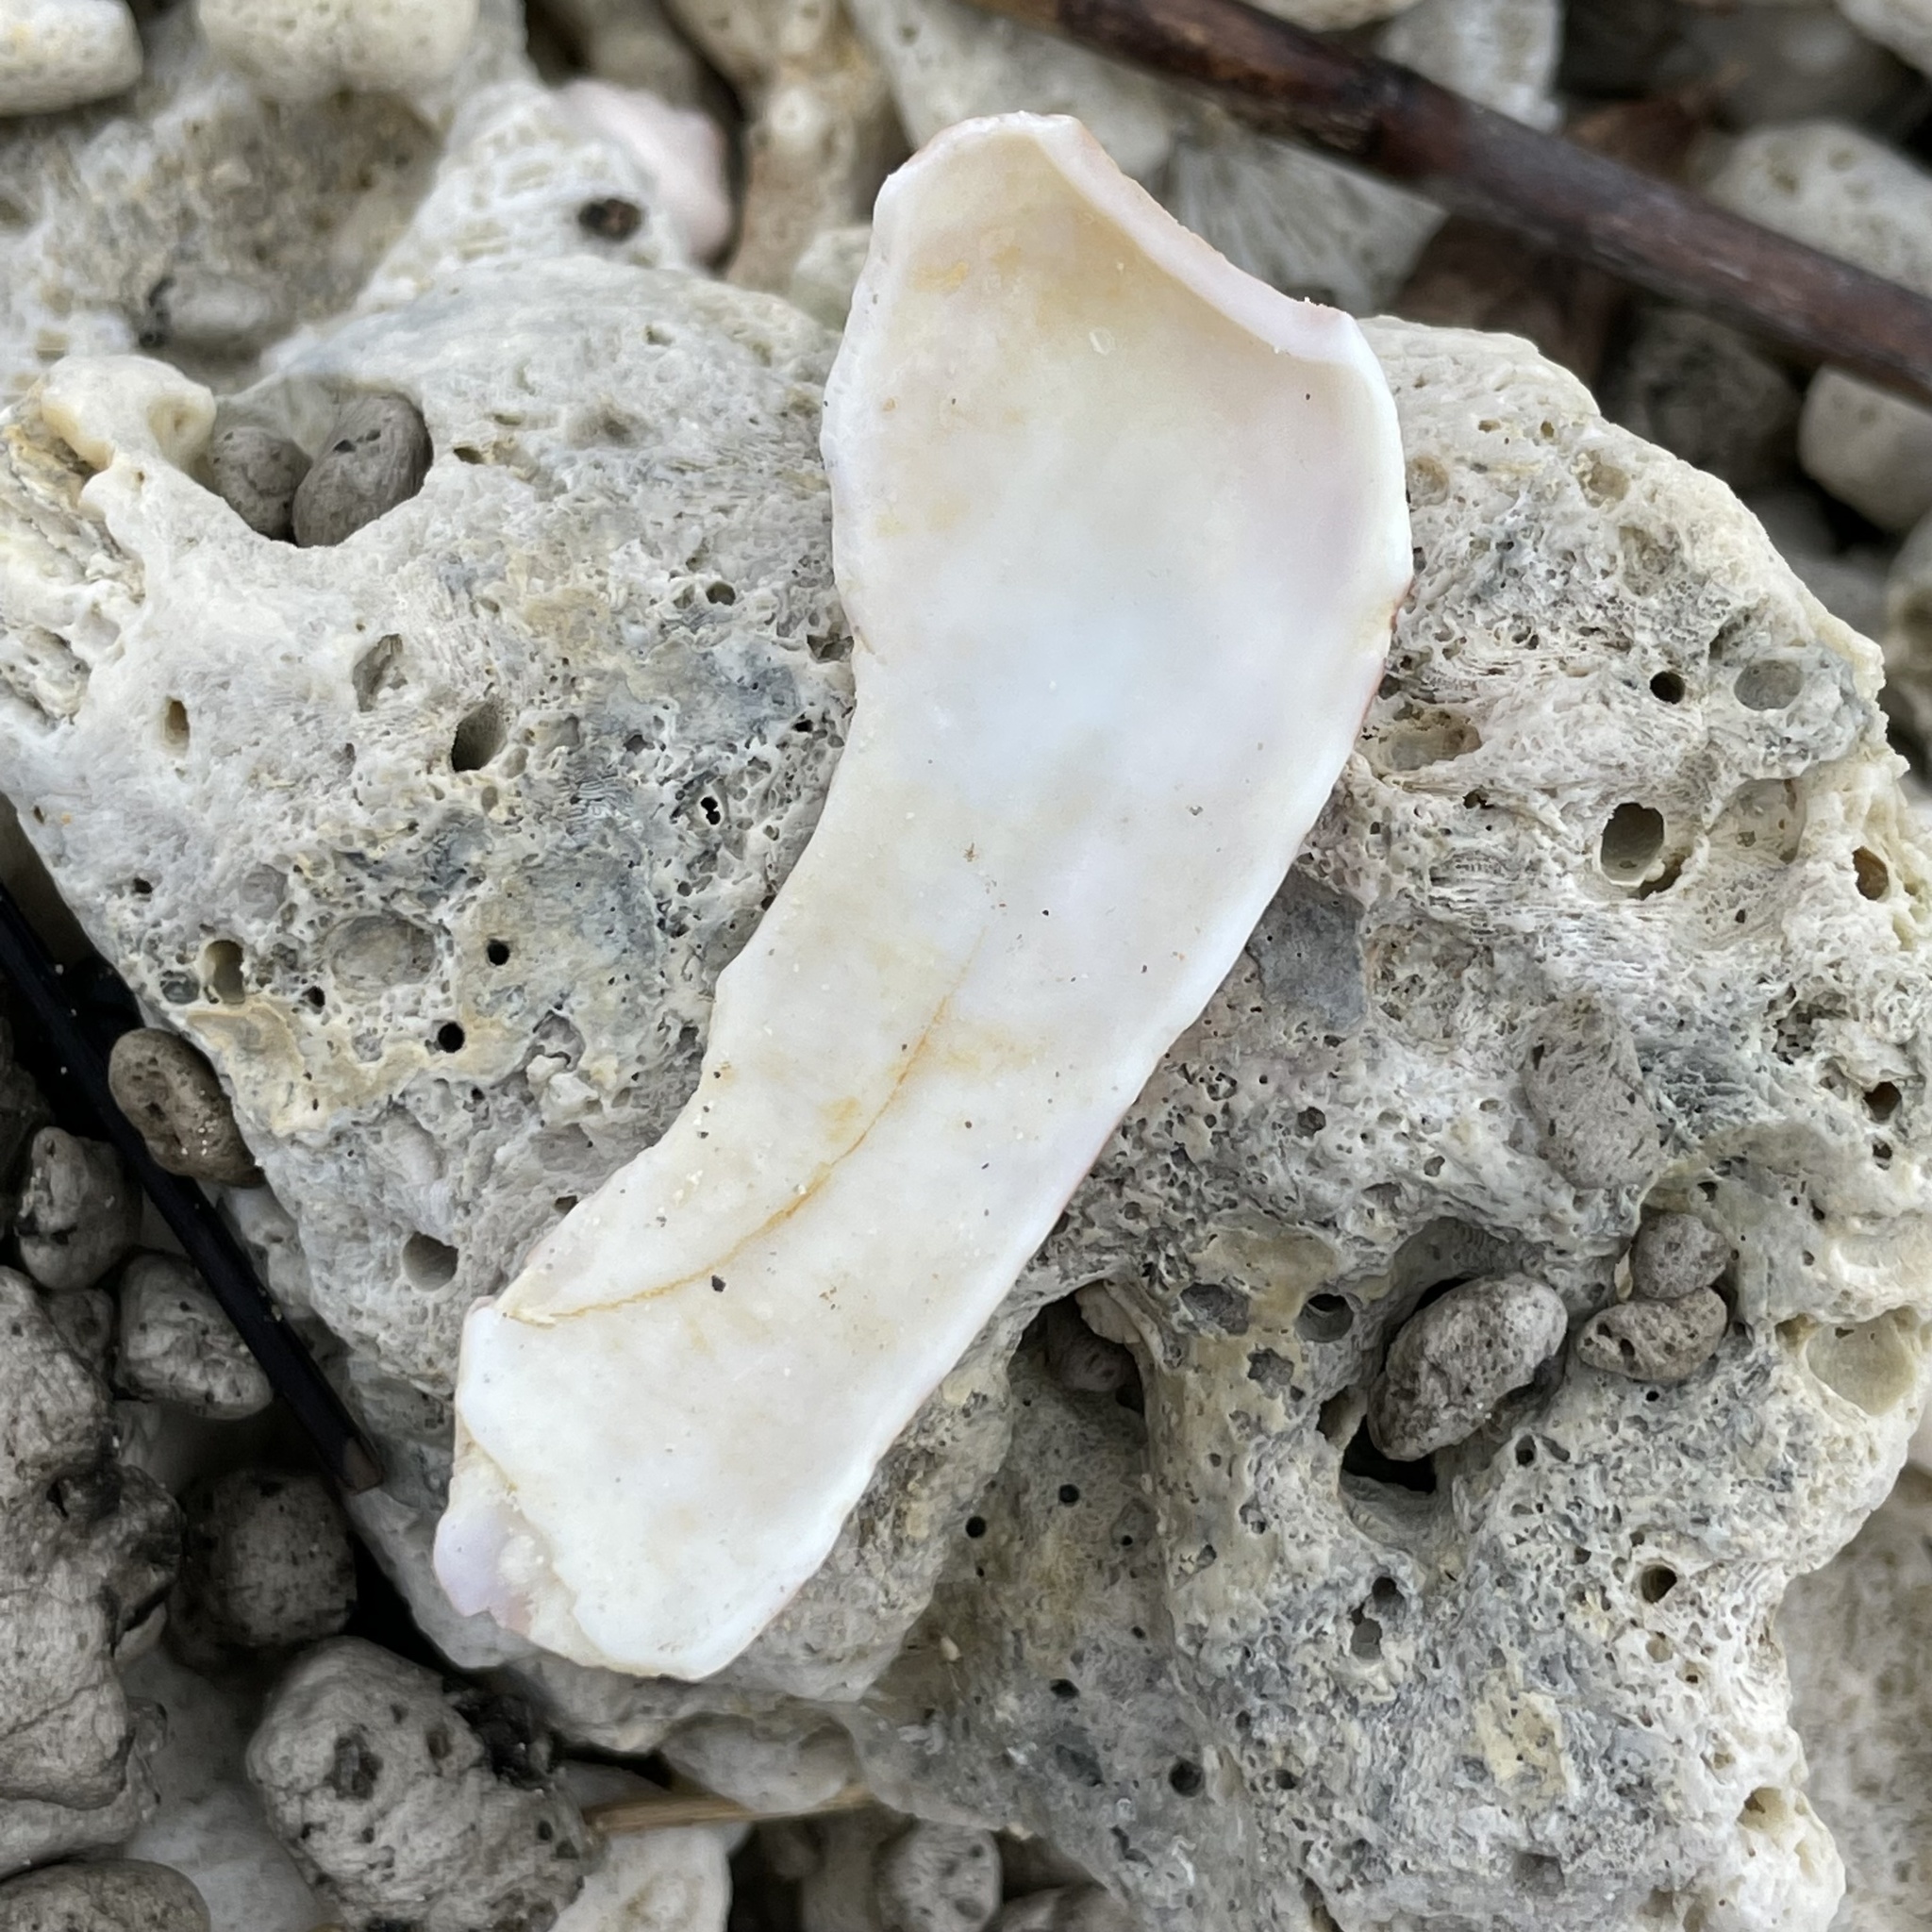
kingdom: Animalia
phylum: Mollusca
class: Gastropoda
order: Neogastropoda
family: Conidae
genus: Conus
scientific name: Conus aulicus
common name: Court cone
